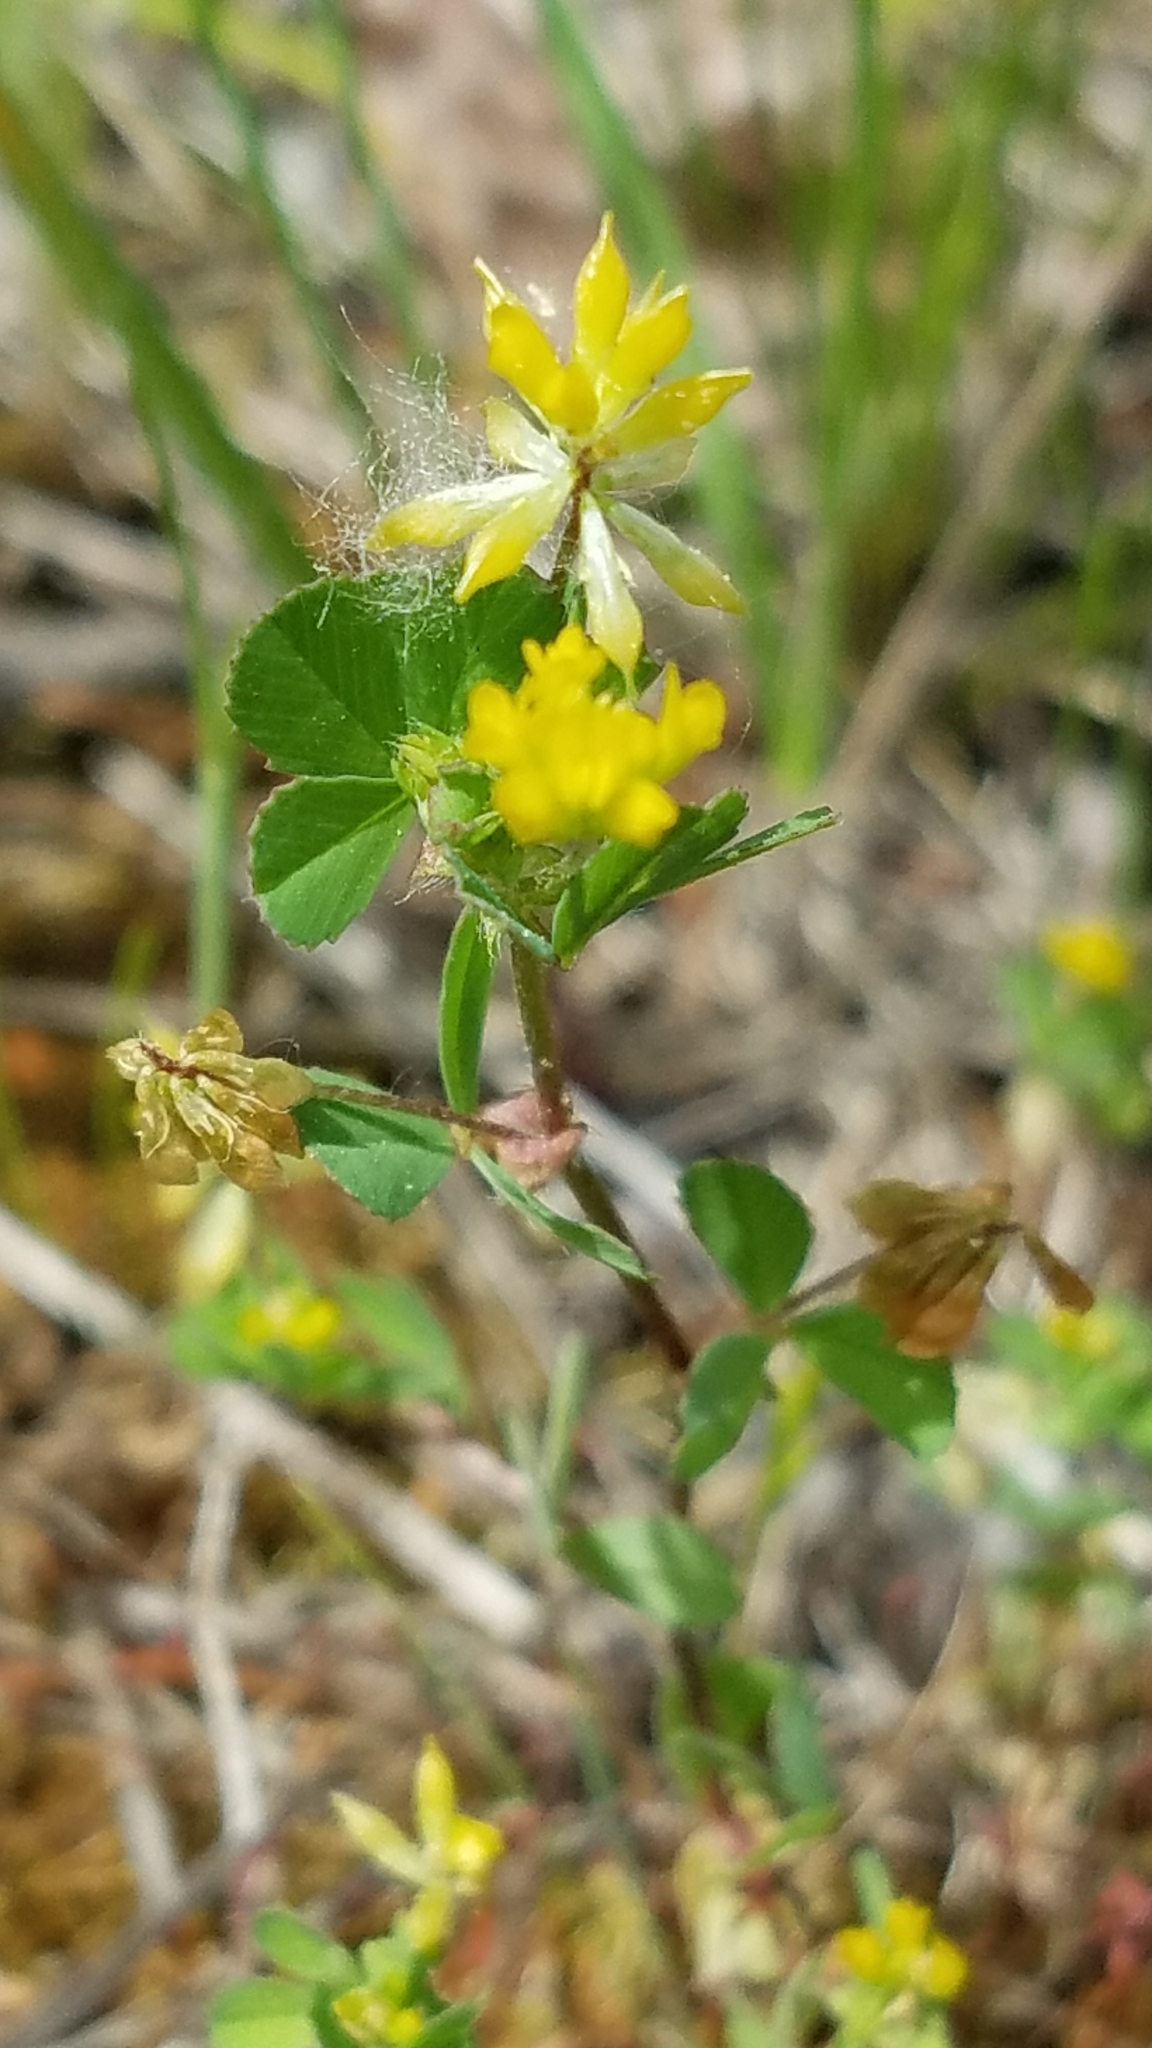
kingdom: Plantae
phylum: Tracheophyta
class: Magnoliopsida
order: Fabales
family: Fabaceae
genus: Trifolium
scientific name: Trifolium dubium
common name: Suckling clover
